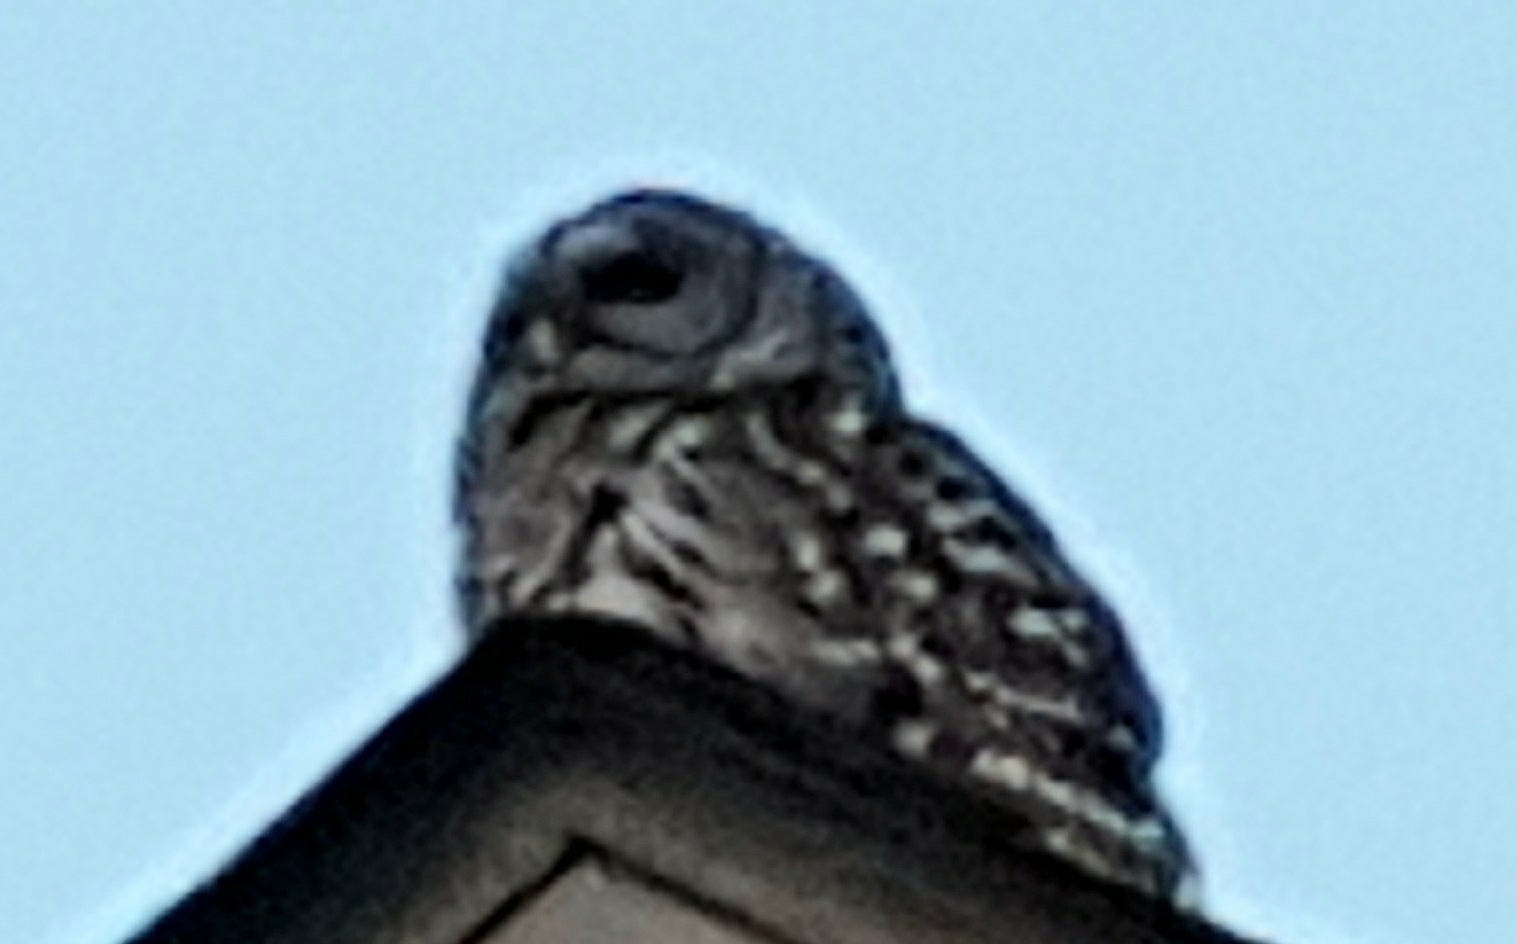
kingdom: Animalia
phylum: Chordata
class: Aves
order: Strigiformes
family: Strigidae
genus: Strix
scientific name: Strix varia
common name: Barred owl
